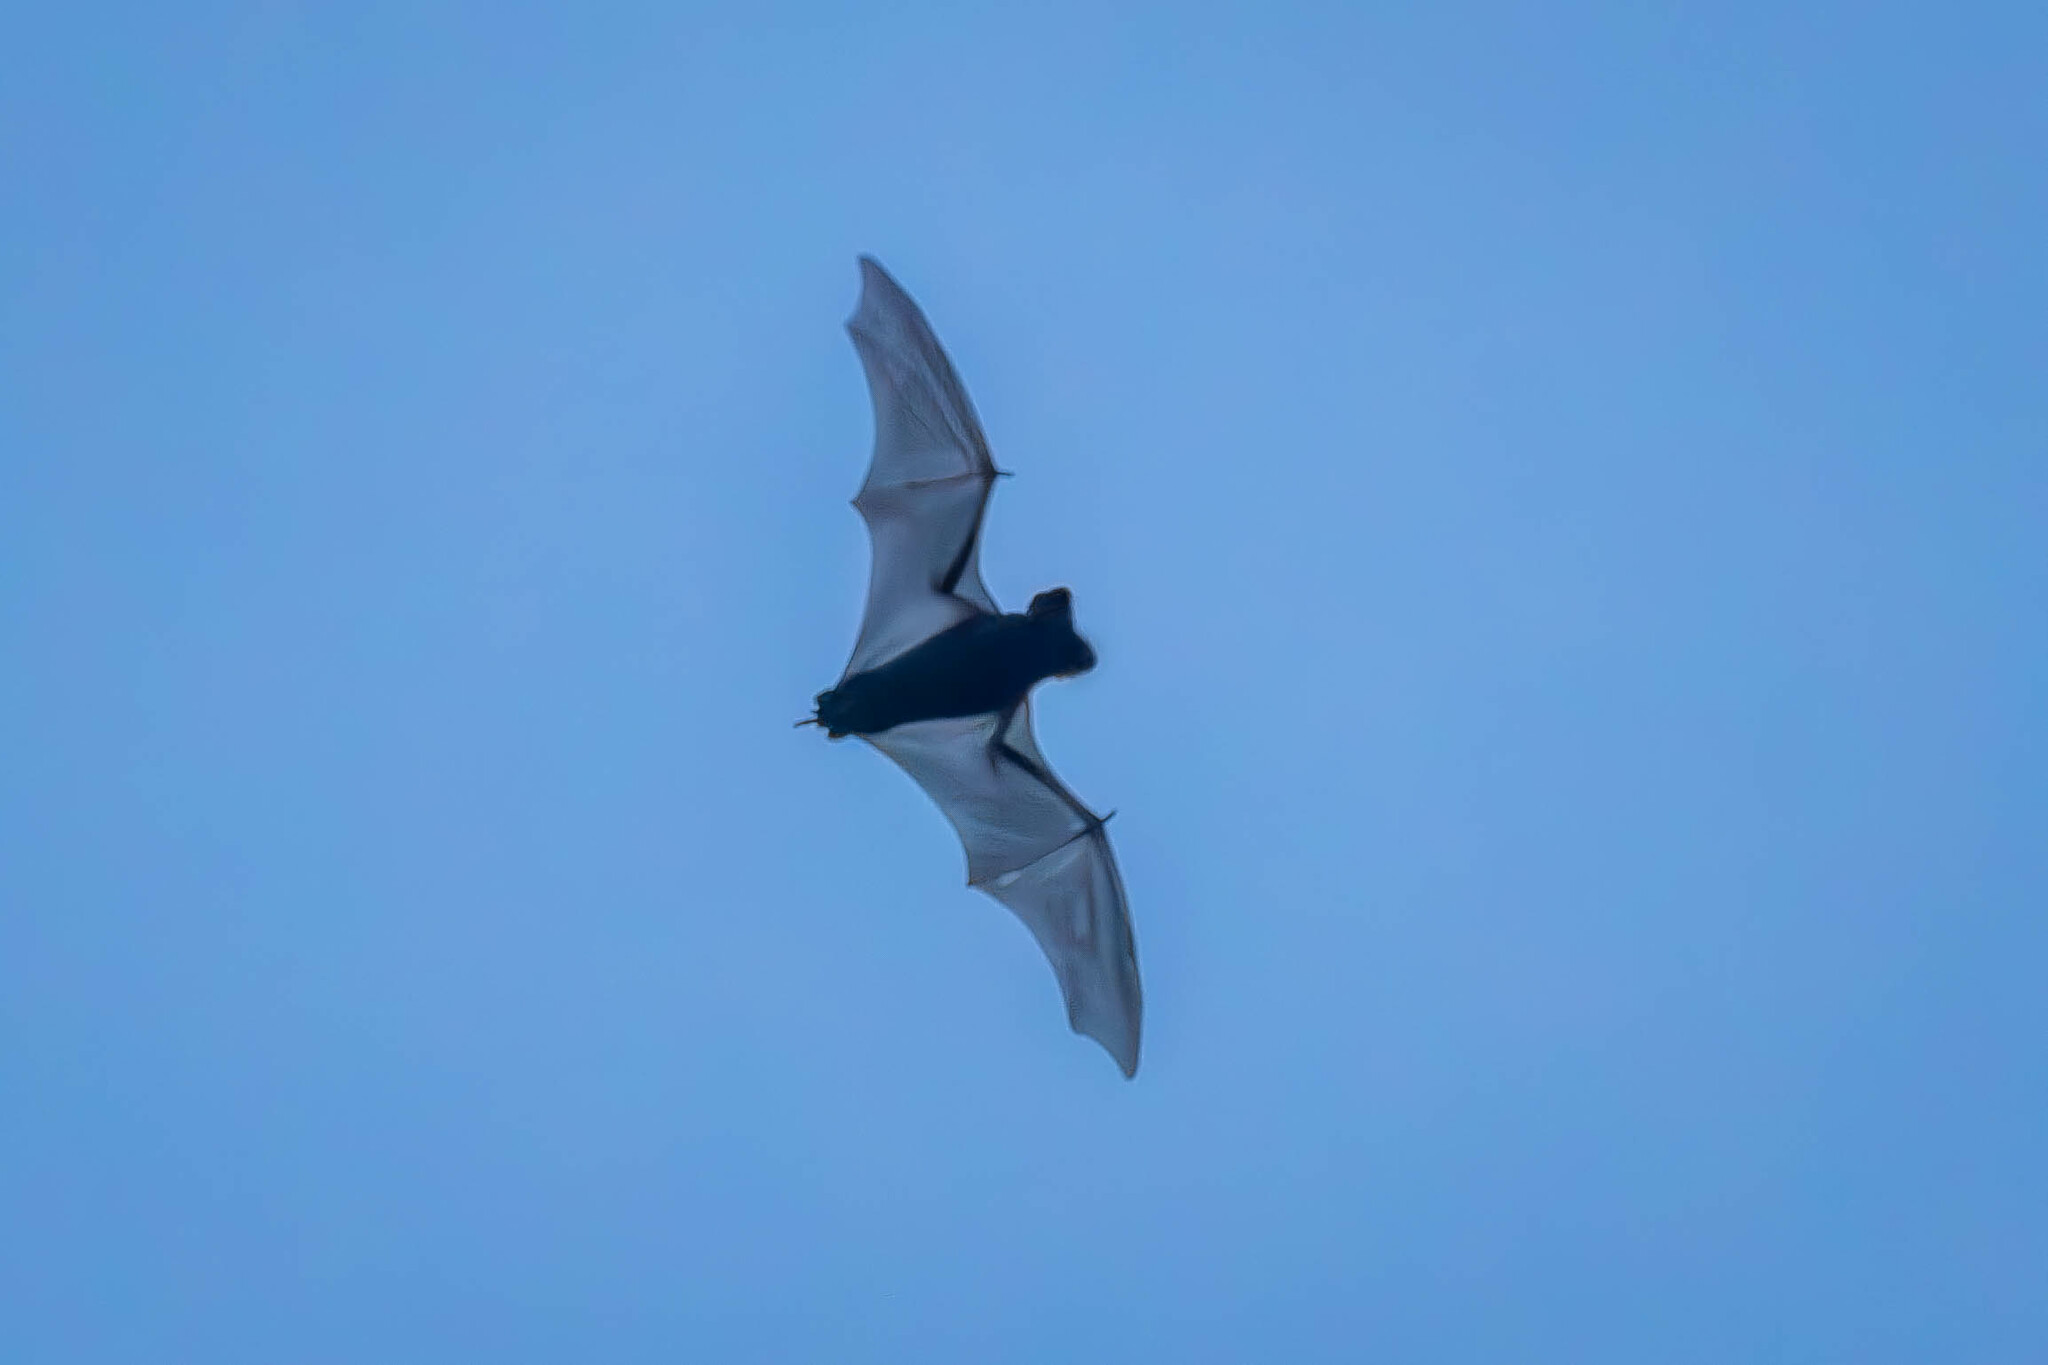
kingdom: Animalia
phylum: Chordata
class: Mammalia
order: Chiroptera
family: Molossidae
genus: Tadarida
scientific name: Tadarida brasiliensis
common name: Mexican free-tailed bat
